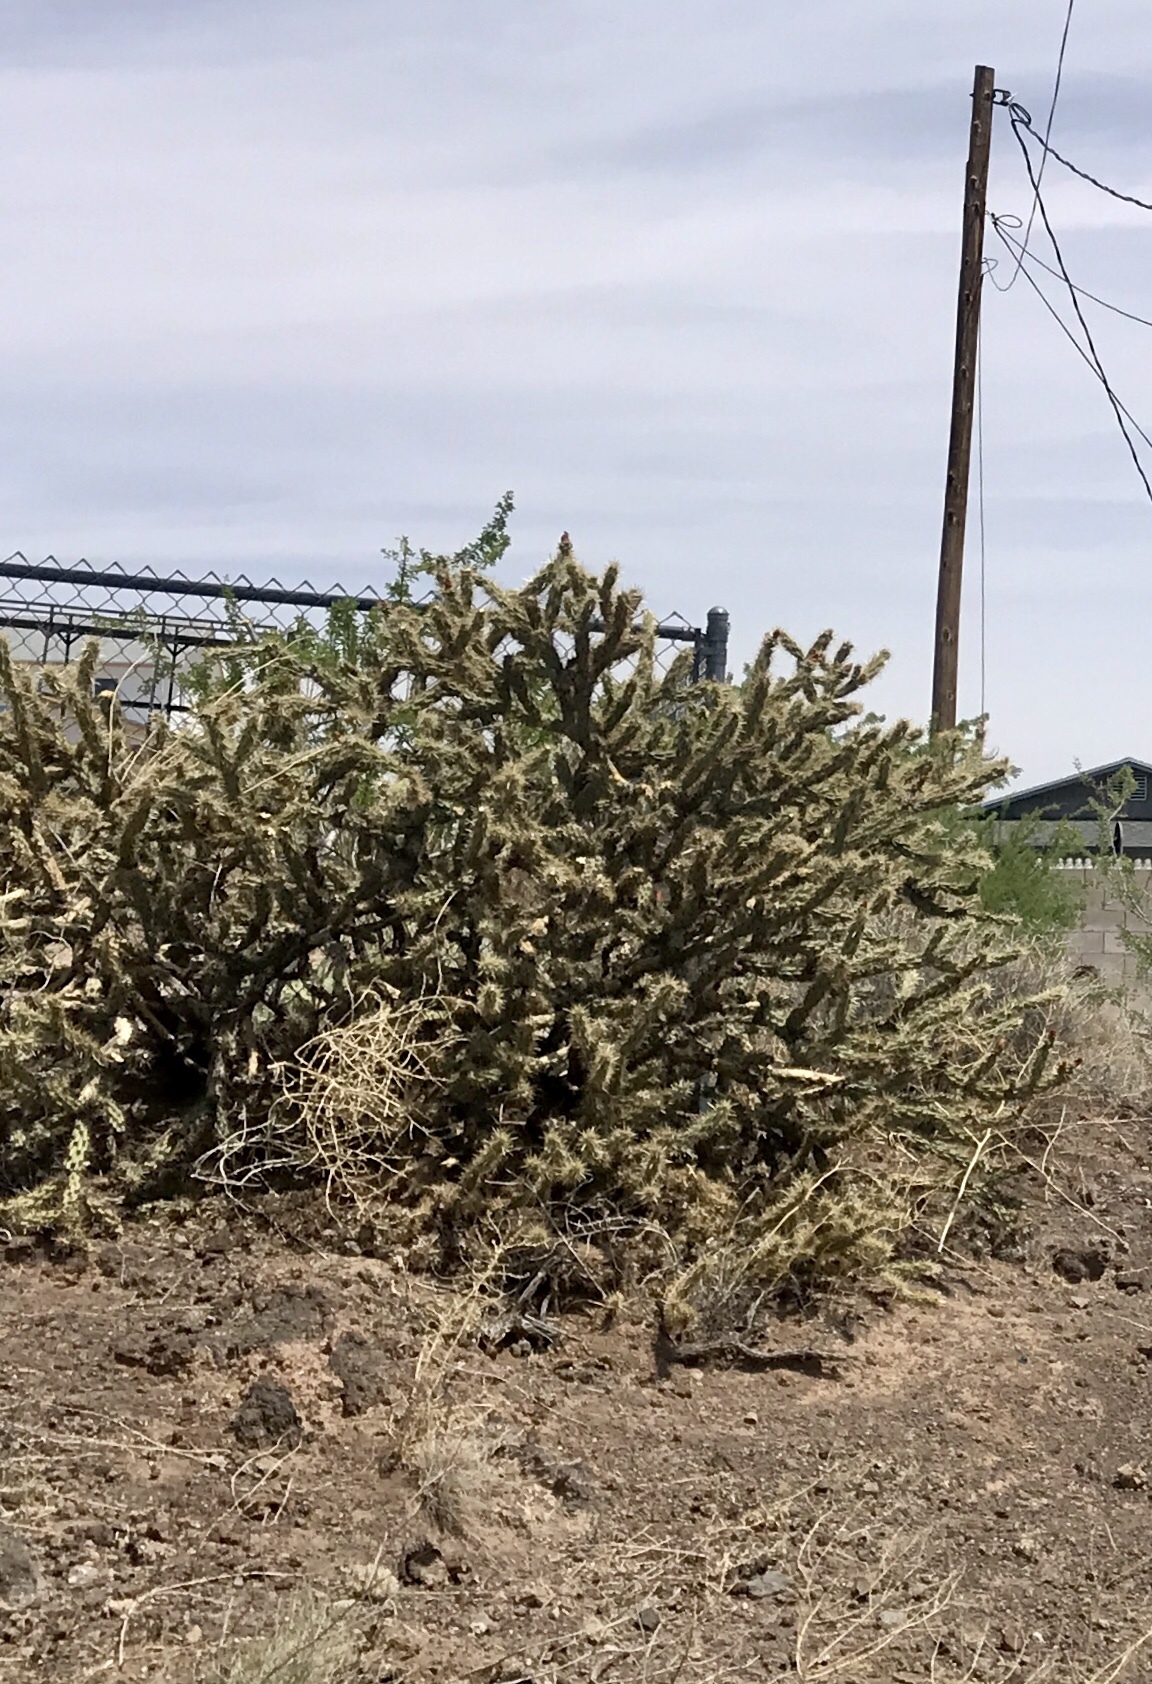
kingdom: Plantae
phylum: Tracheophyta
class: Magnoliopsida
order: Caryophyllales
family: Cactaceae
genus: Cylindropuntia
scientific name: Cylindropuntia acanthocarpa
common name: Buckhorn cholla
